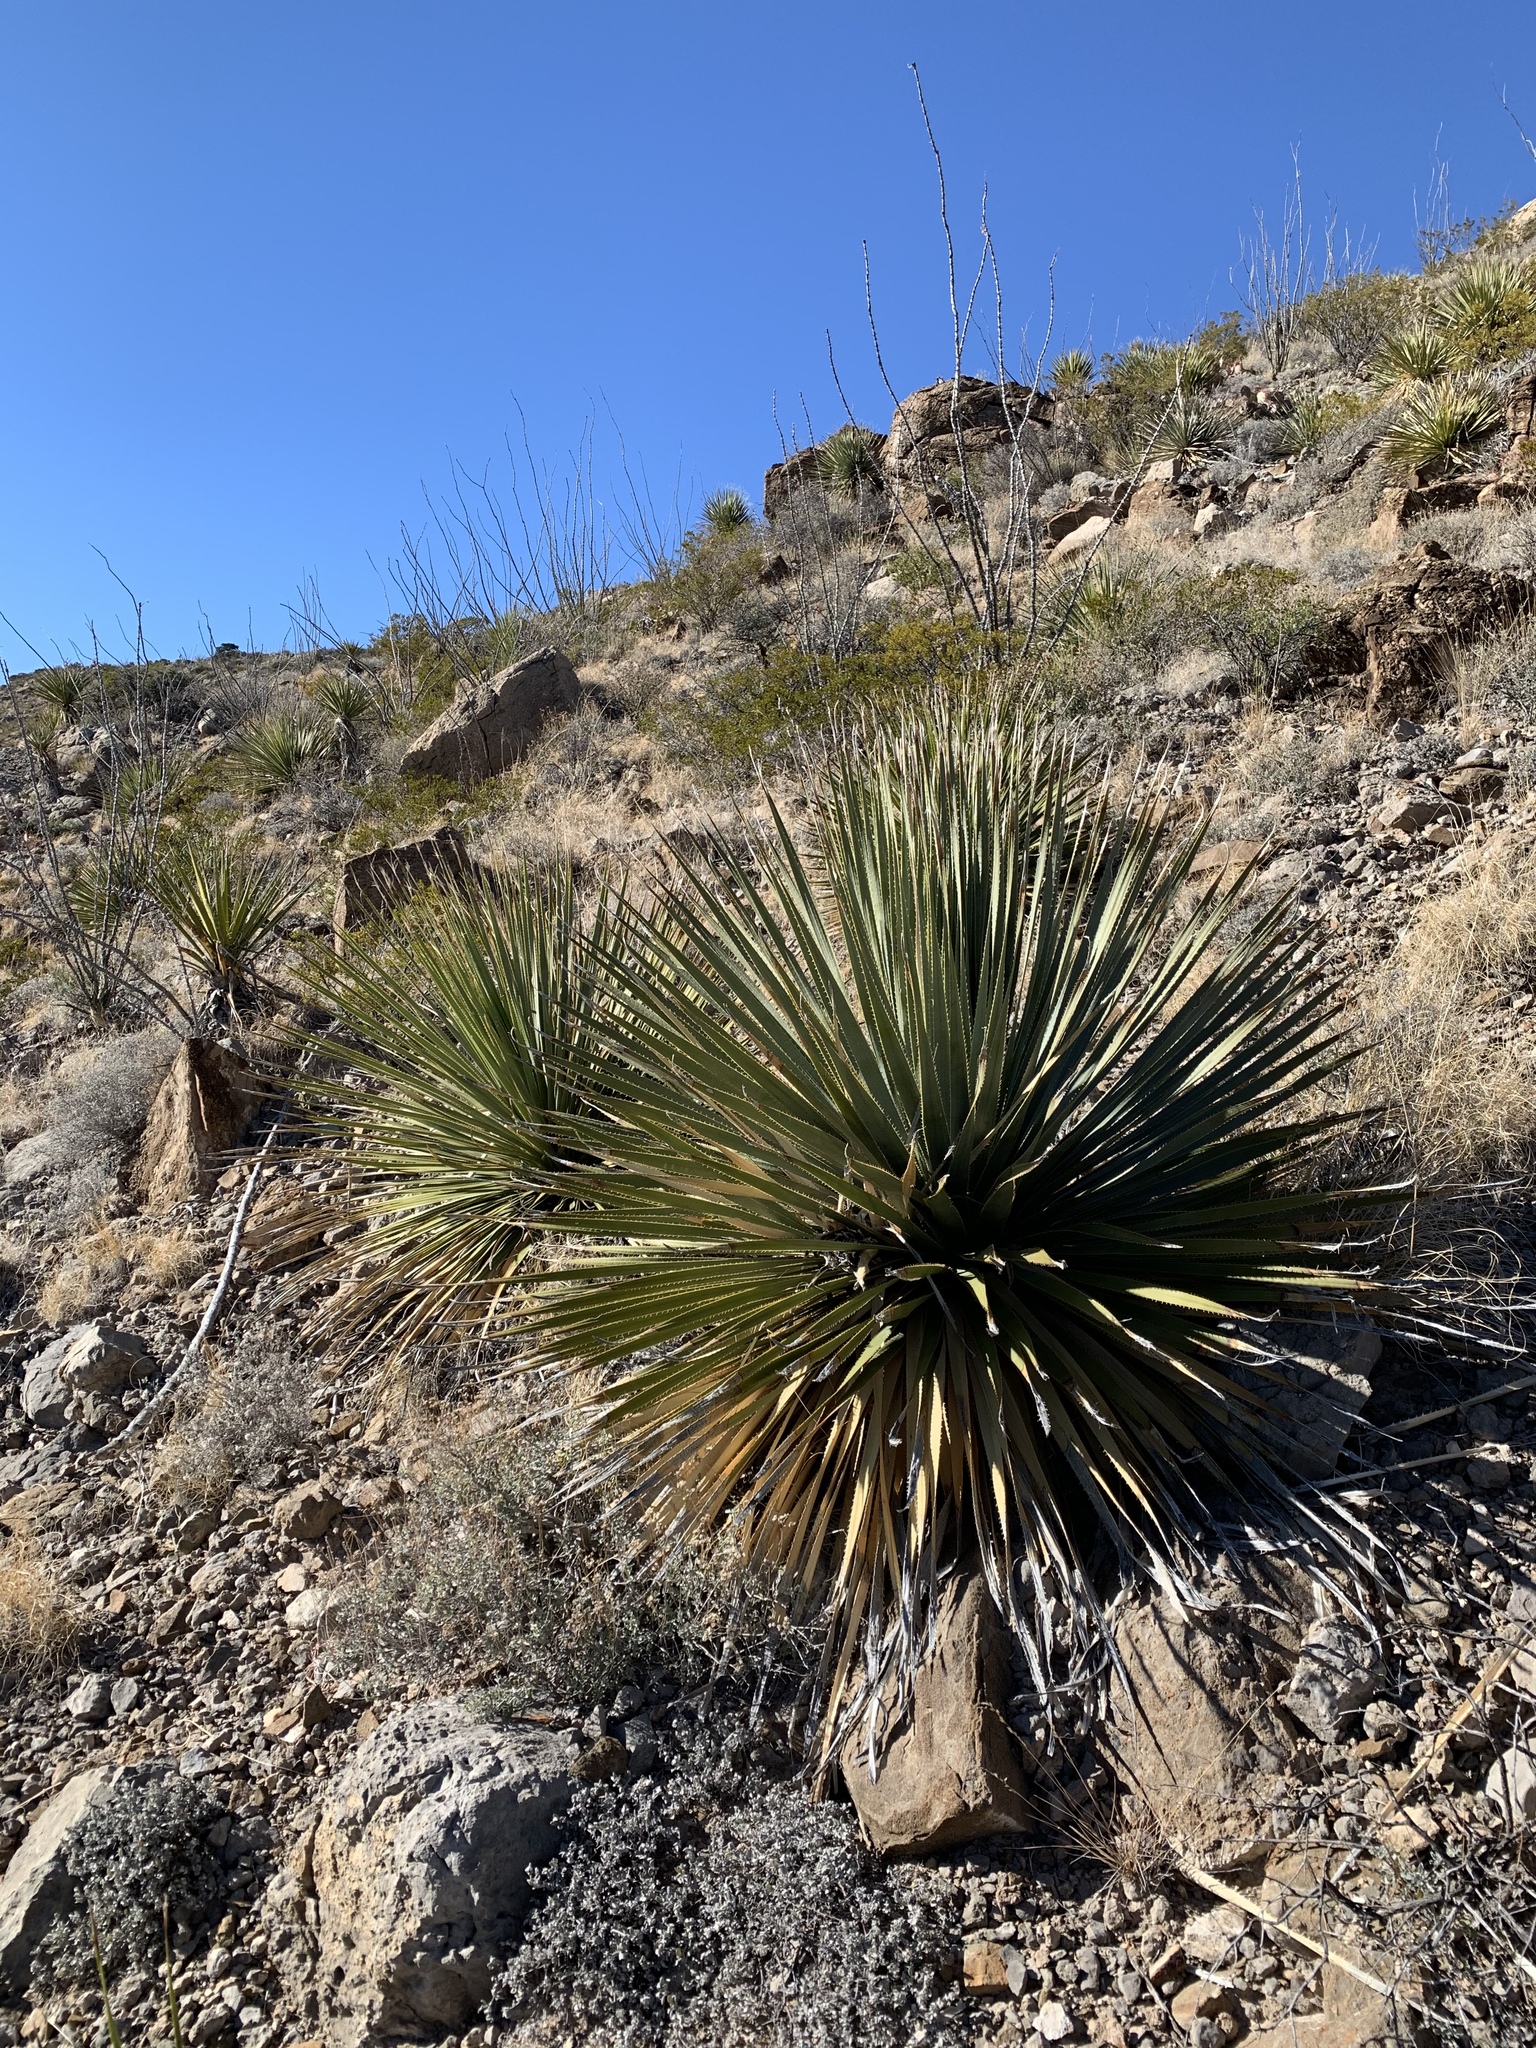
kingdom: Plantae
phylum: Tracheophyta
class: Liliopsida
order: Asparagales
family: Asparagaceae
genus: Dasylirion
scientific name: Dasylirion wheeleri
